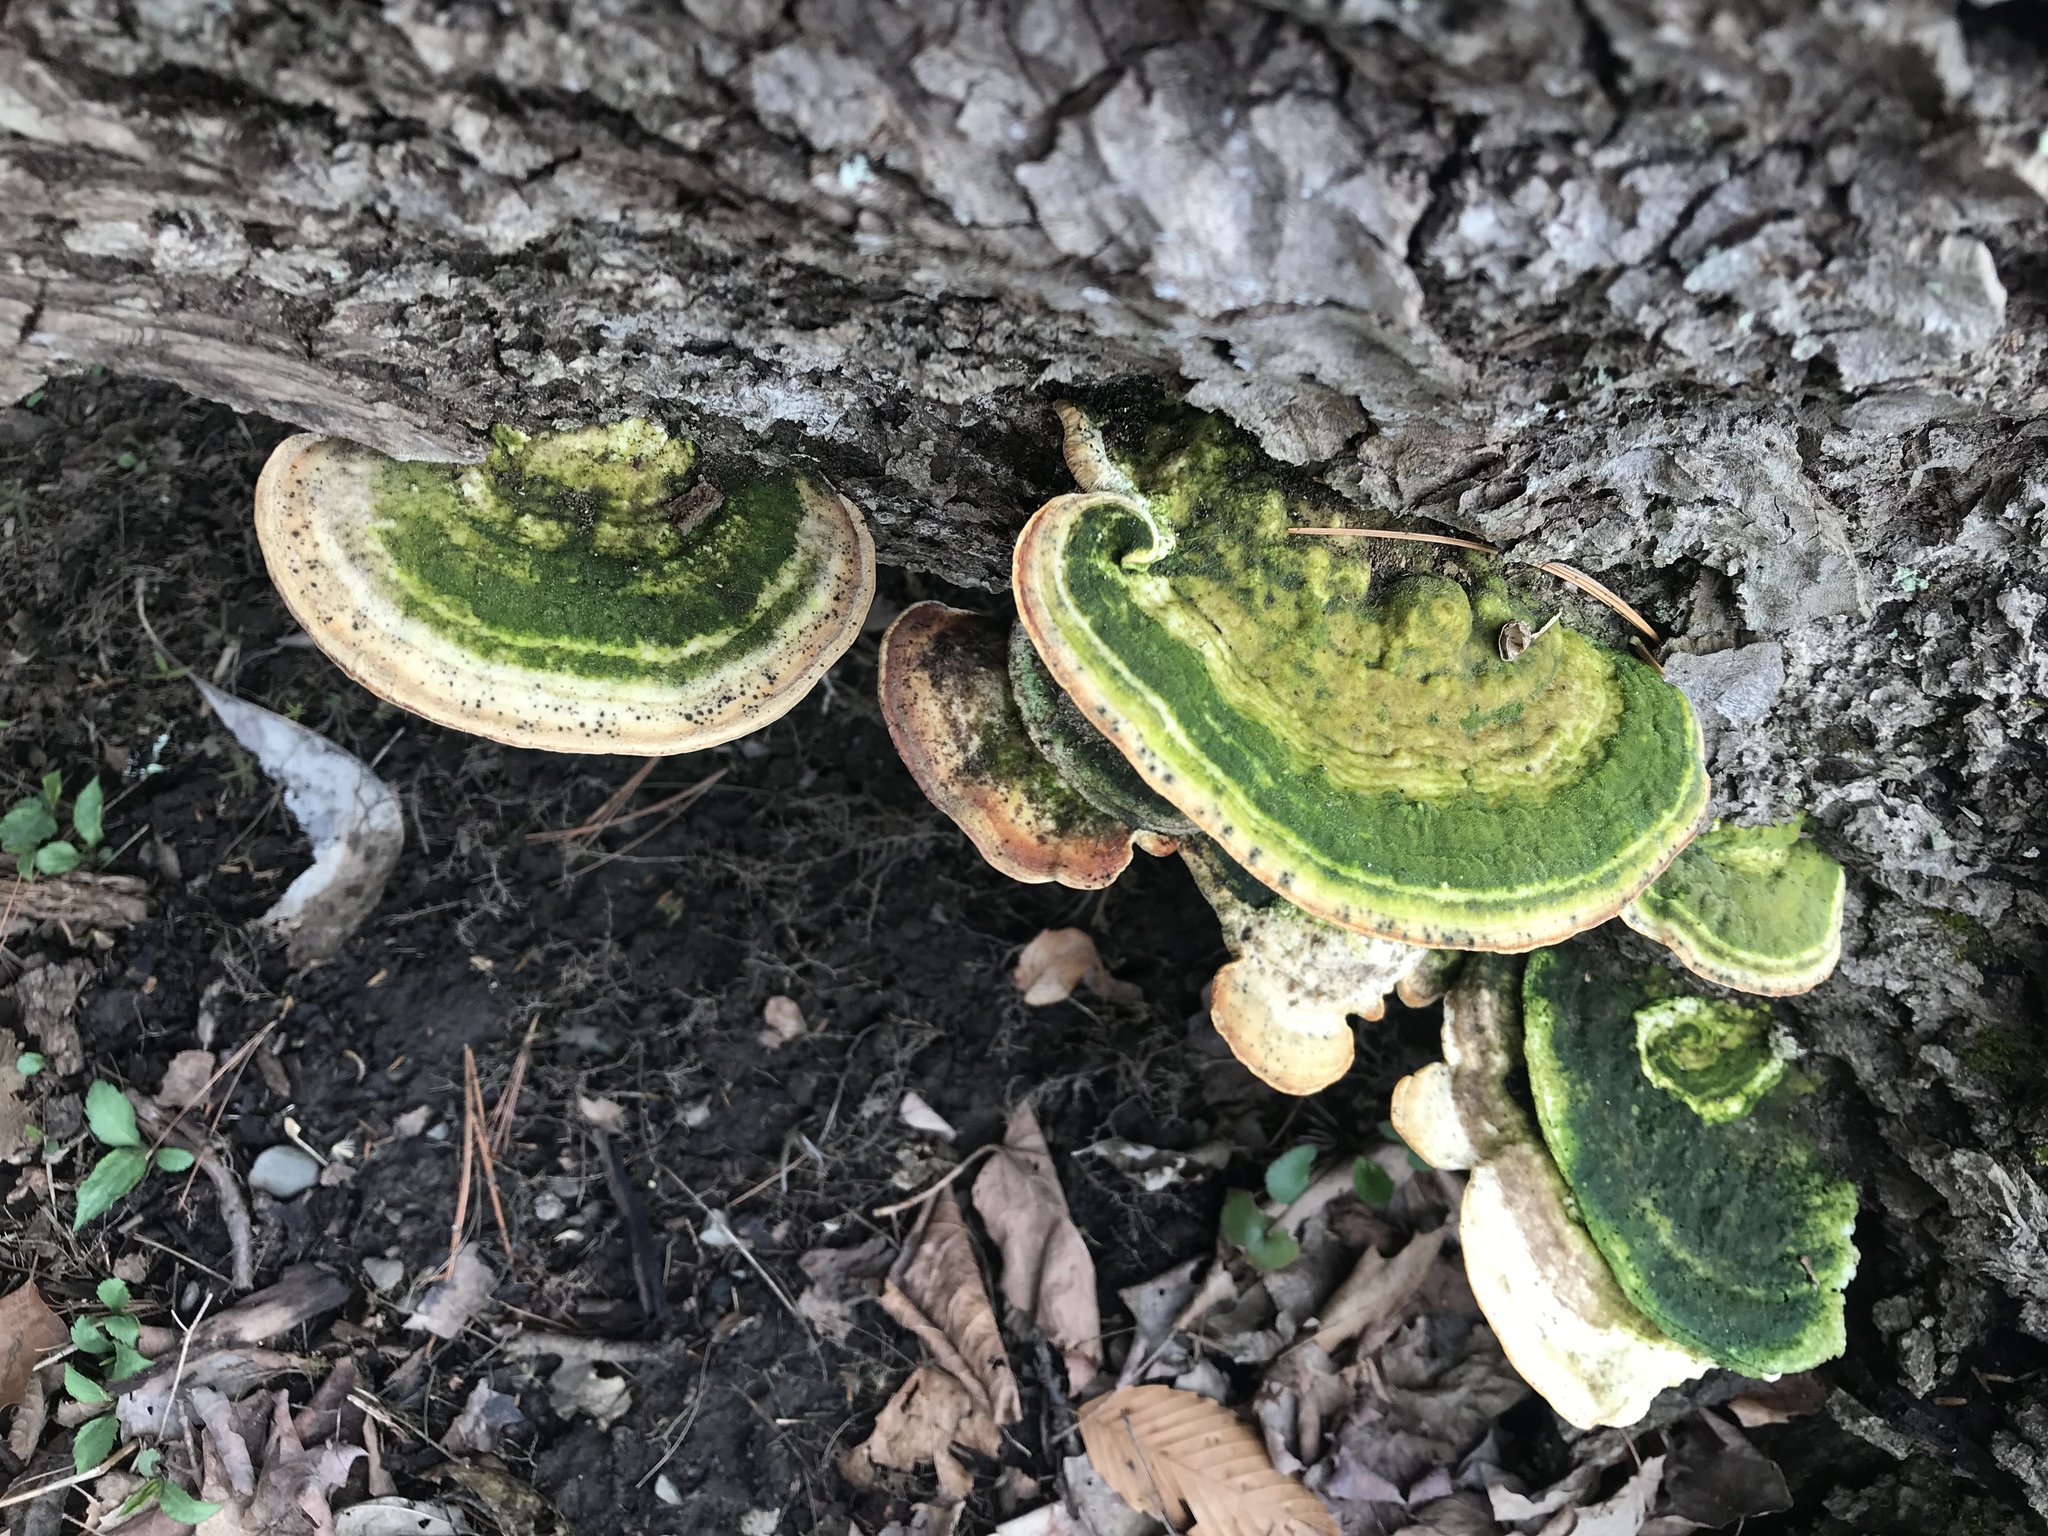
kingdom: Fungi
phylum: Basidiomycota
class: Agaricomycetes
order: Polyporales
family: Polyporaceae
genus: Trametes
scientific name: Trametes gibbosa
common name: Lumpy bracket
